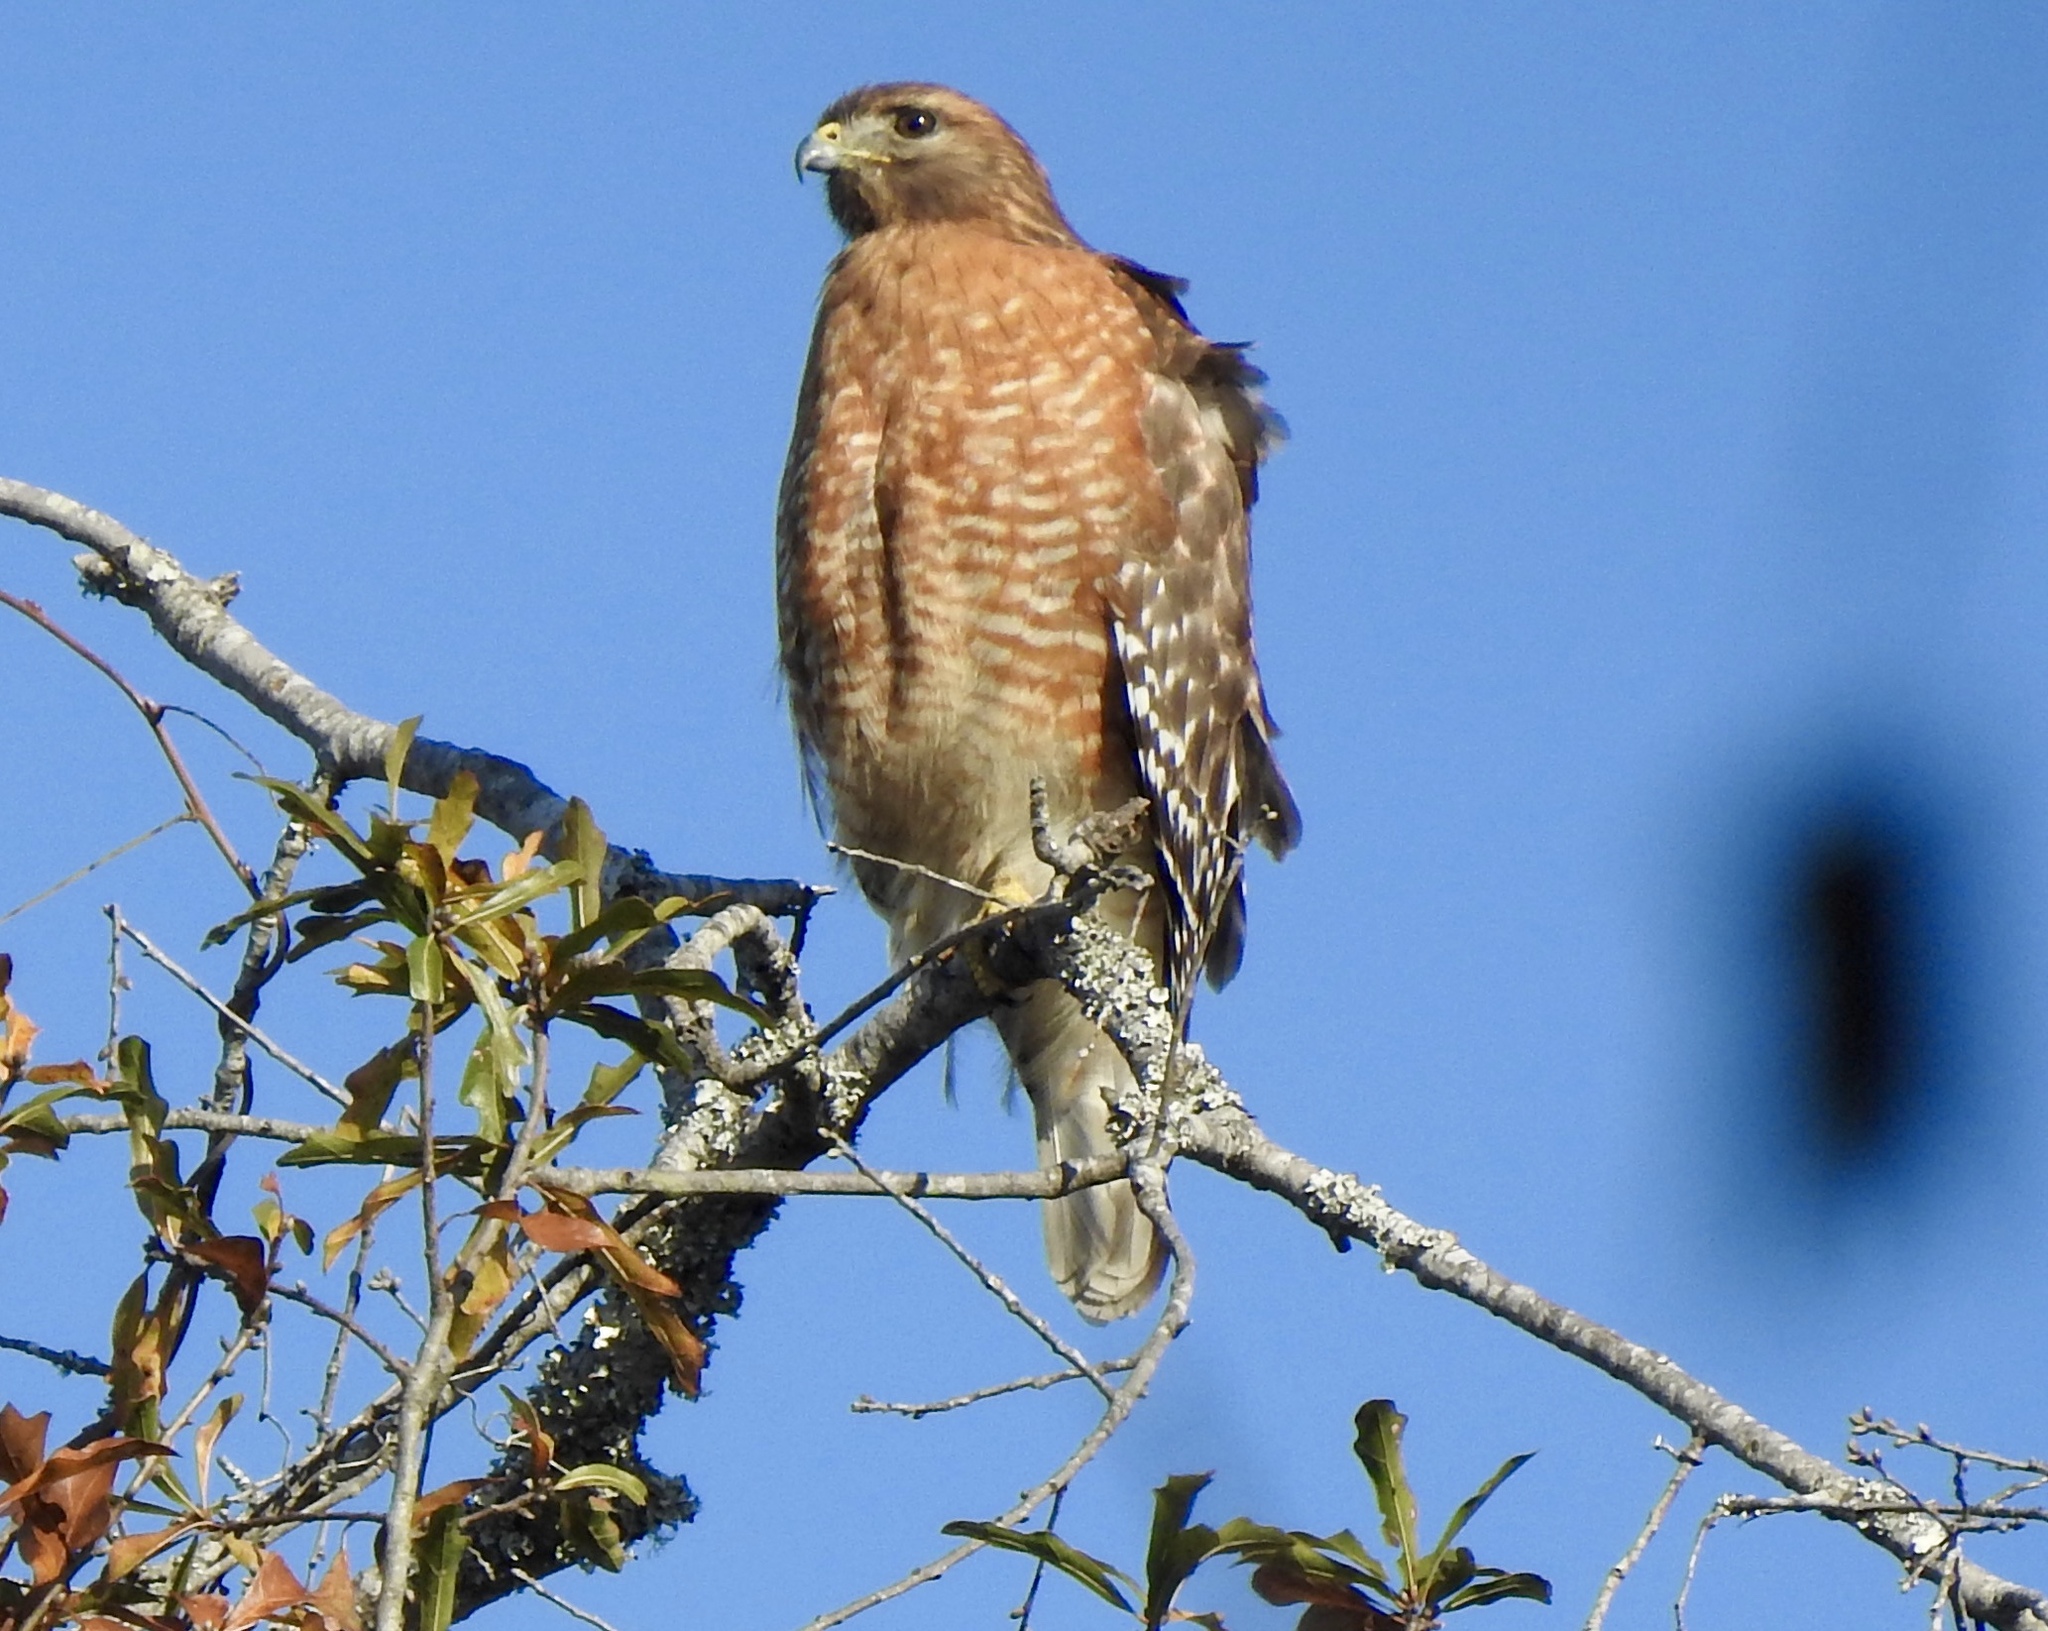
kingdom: Animalia
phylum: Chordata
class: Aves
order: Accipitriformes
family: Accipitridae
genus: Buteo
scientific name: Buteo lineatus
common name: Red-shouldered hawk
